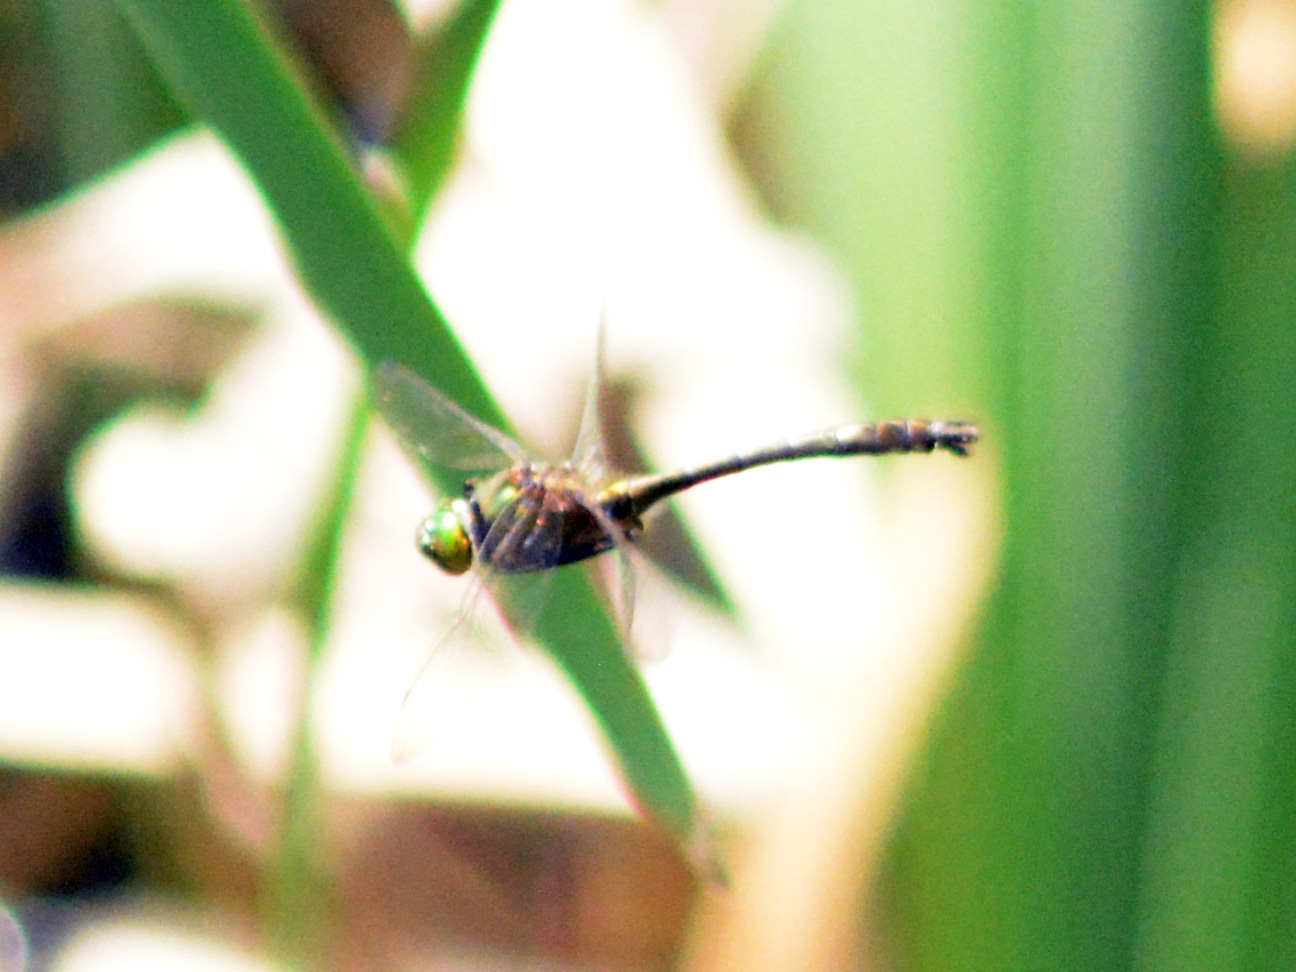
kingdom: Animalia
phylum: Arthropoda
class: Insecta
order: Odonata
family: Corduliidae
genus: Cordulia
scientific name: Cordulia aenea
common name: Downy emerald
